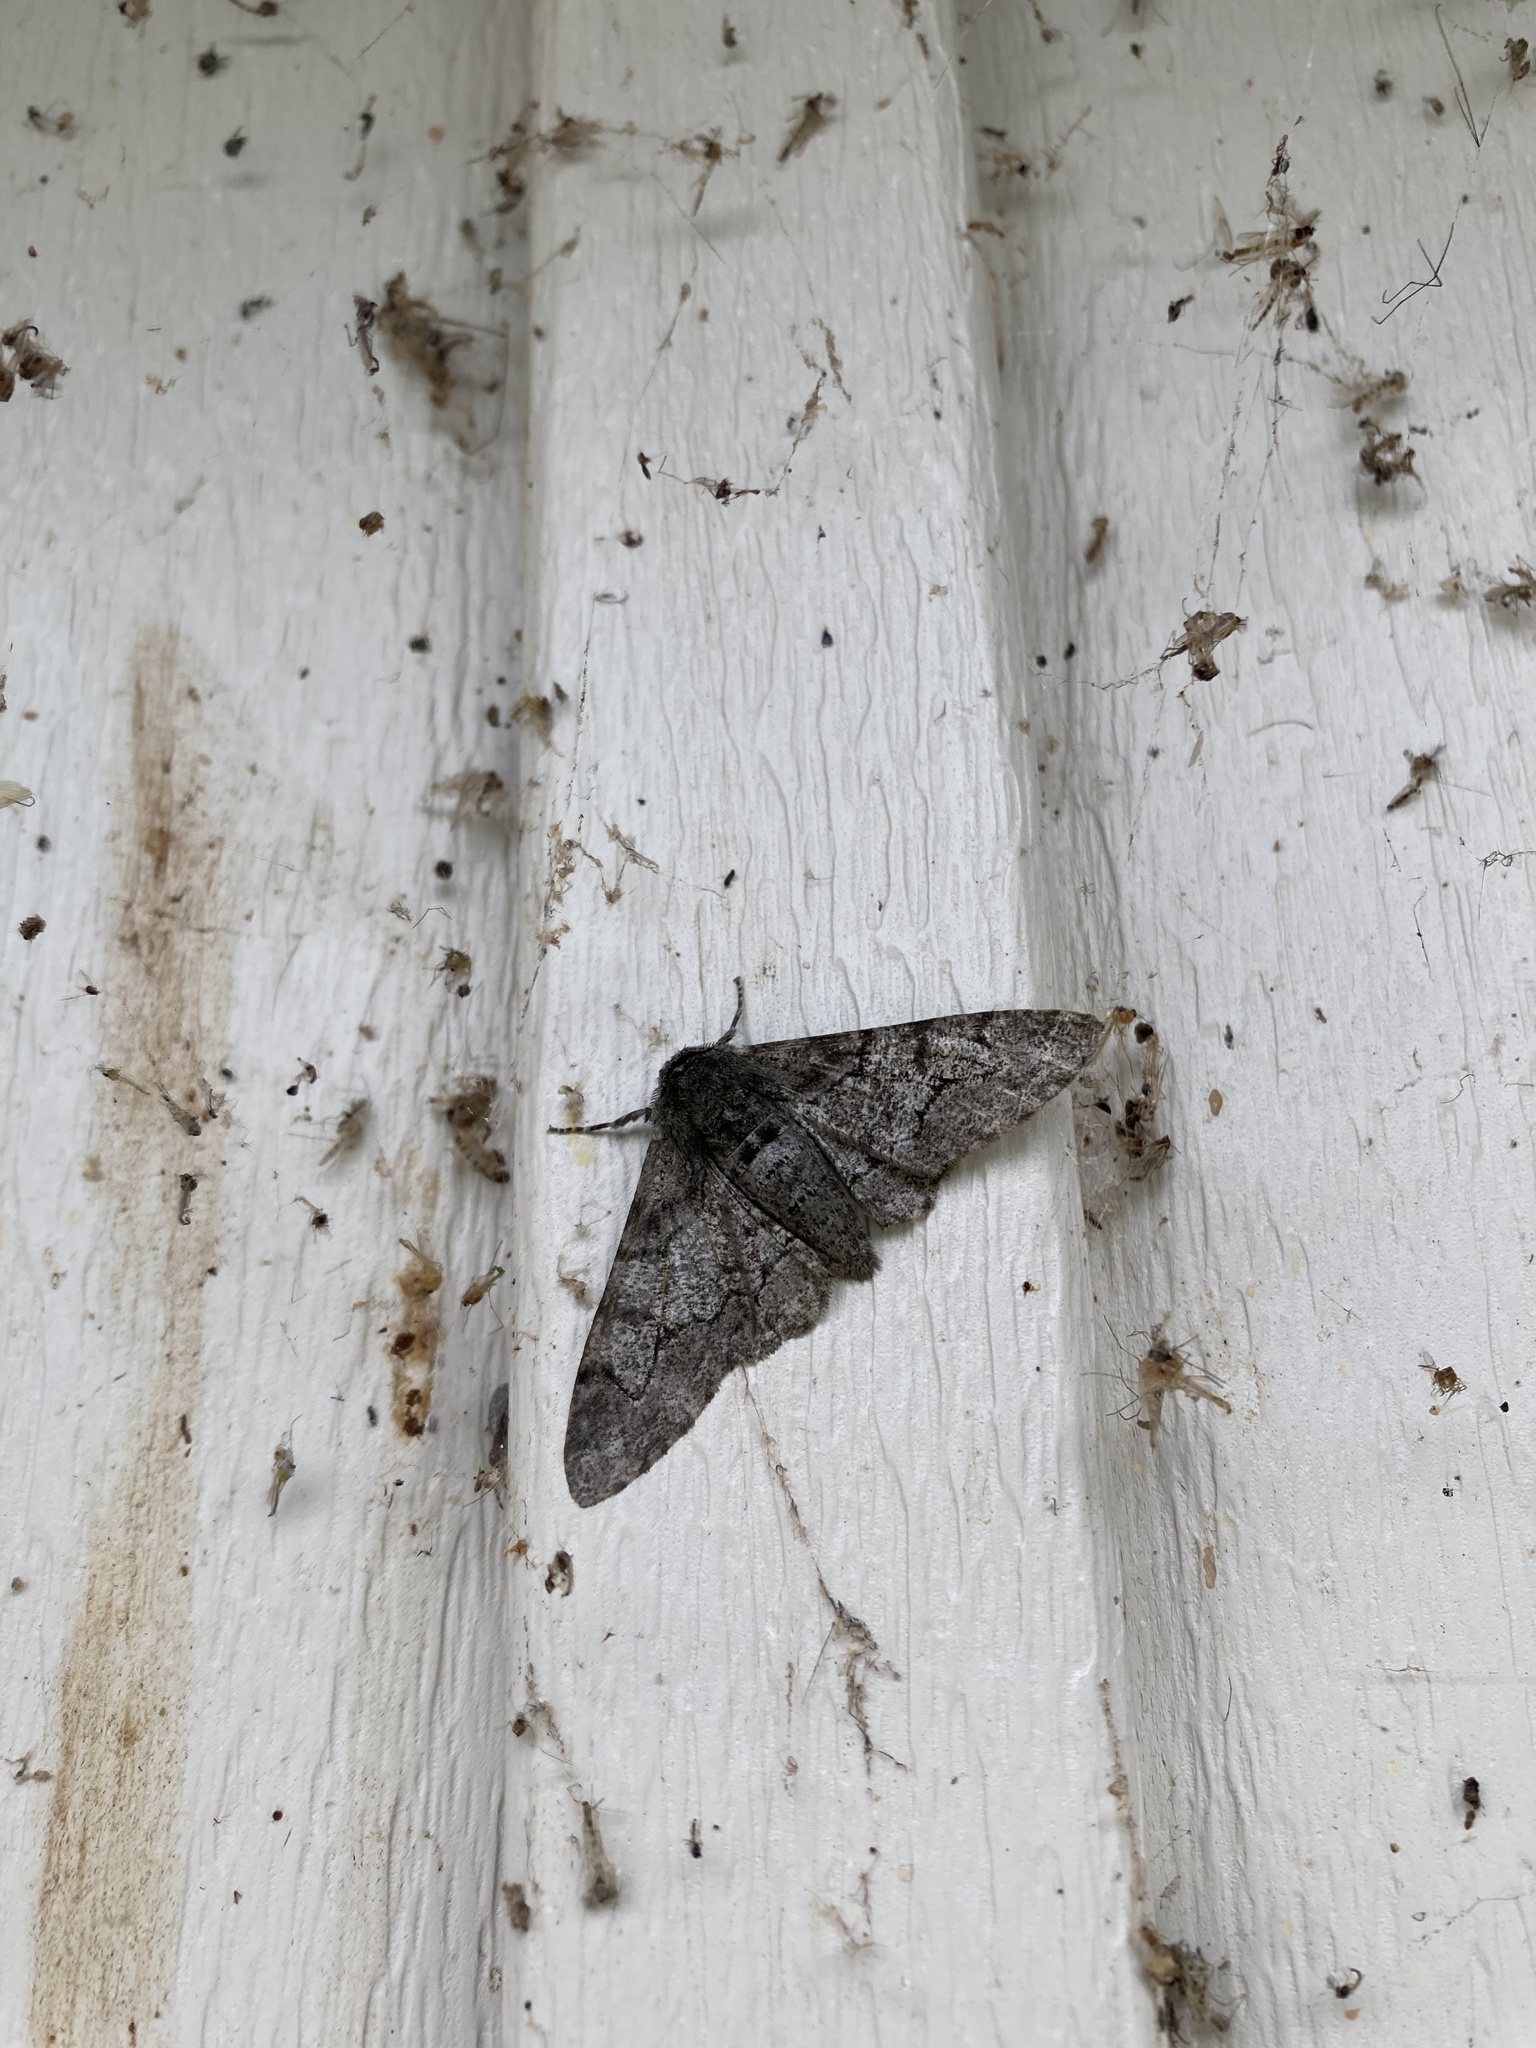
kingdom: Animalia
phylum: Arthropoda
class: Insecta
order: Lepidoptera
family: Geometridae
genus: Biston
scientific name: Biston betularia
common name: Peppered moth
